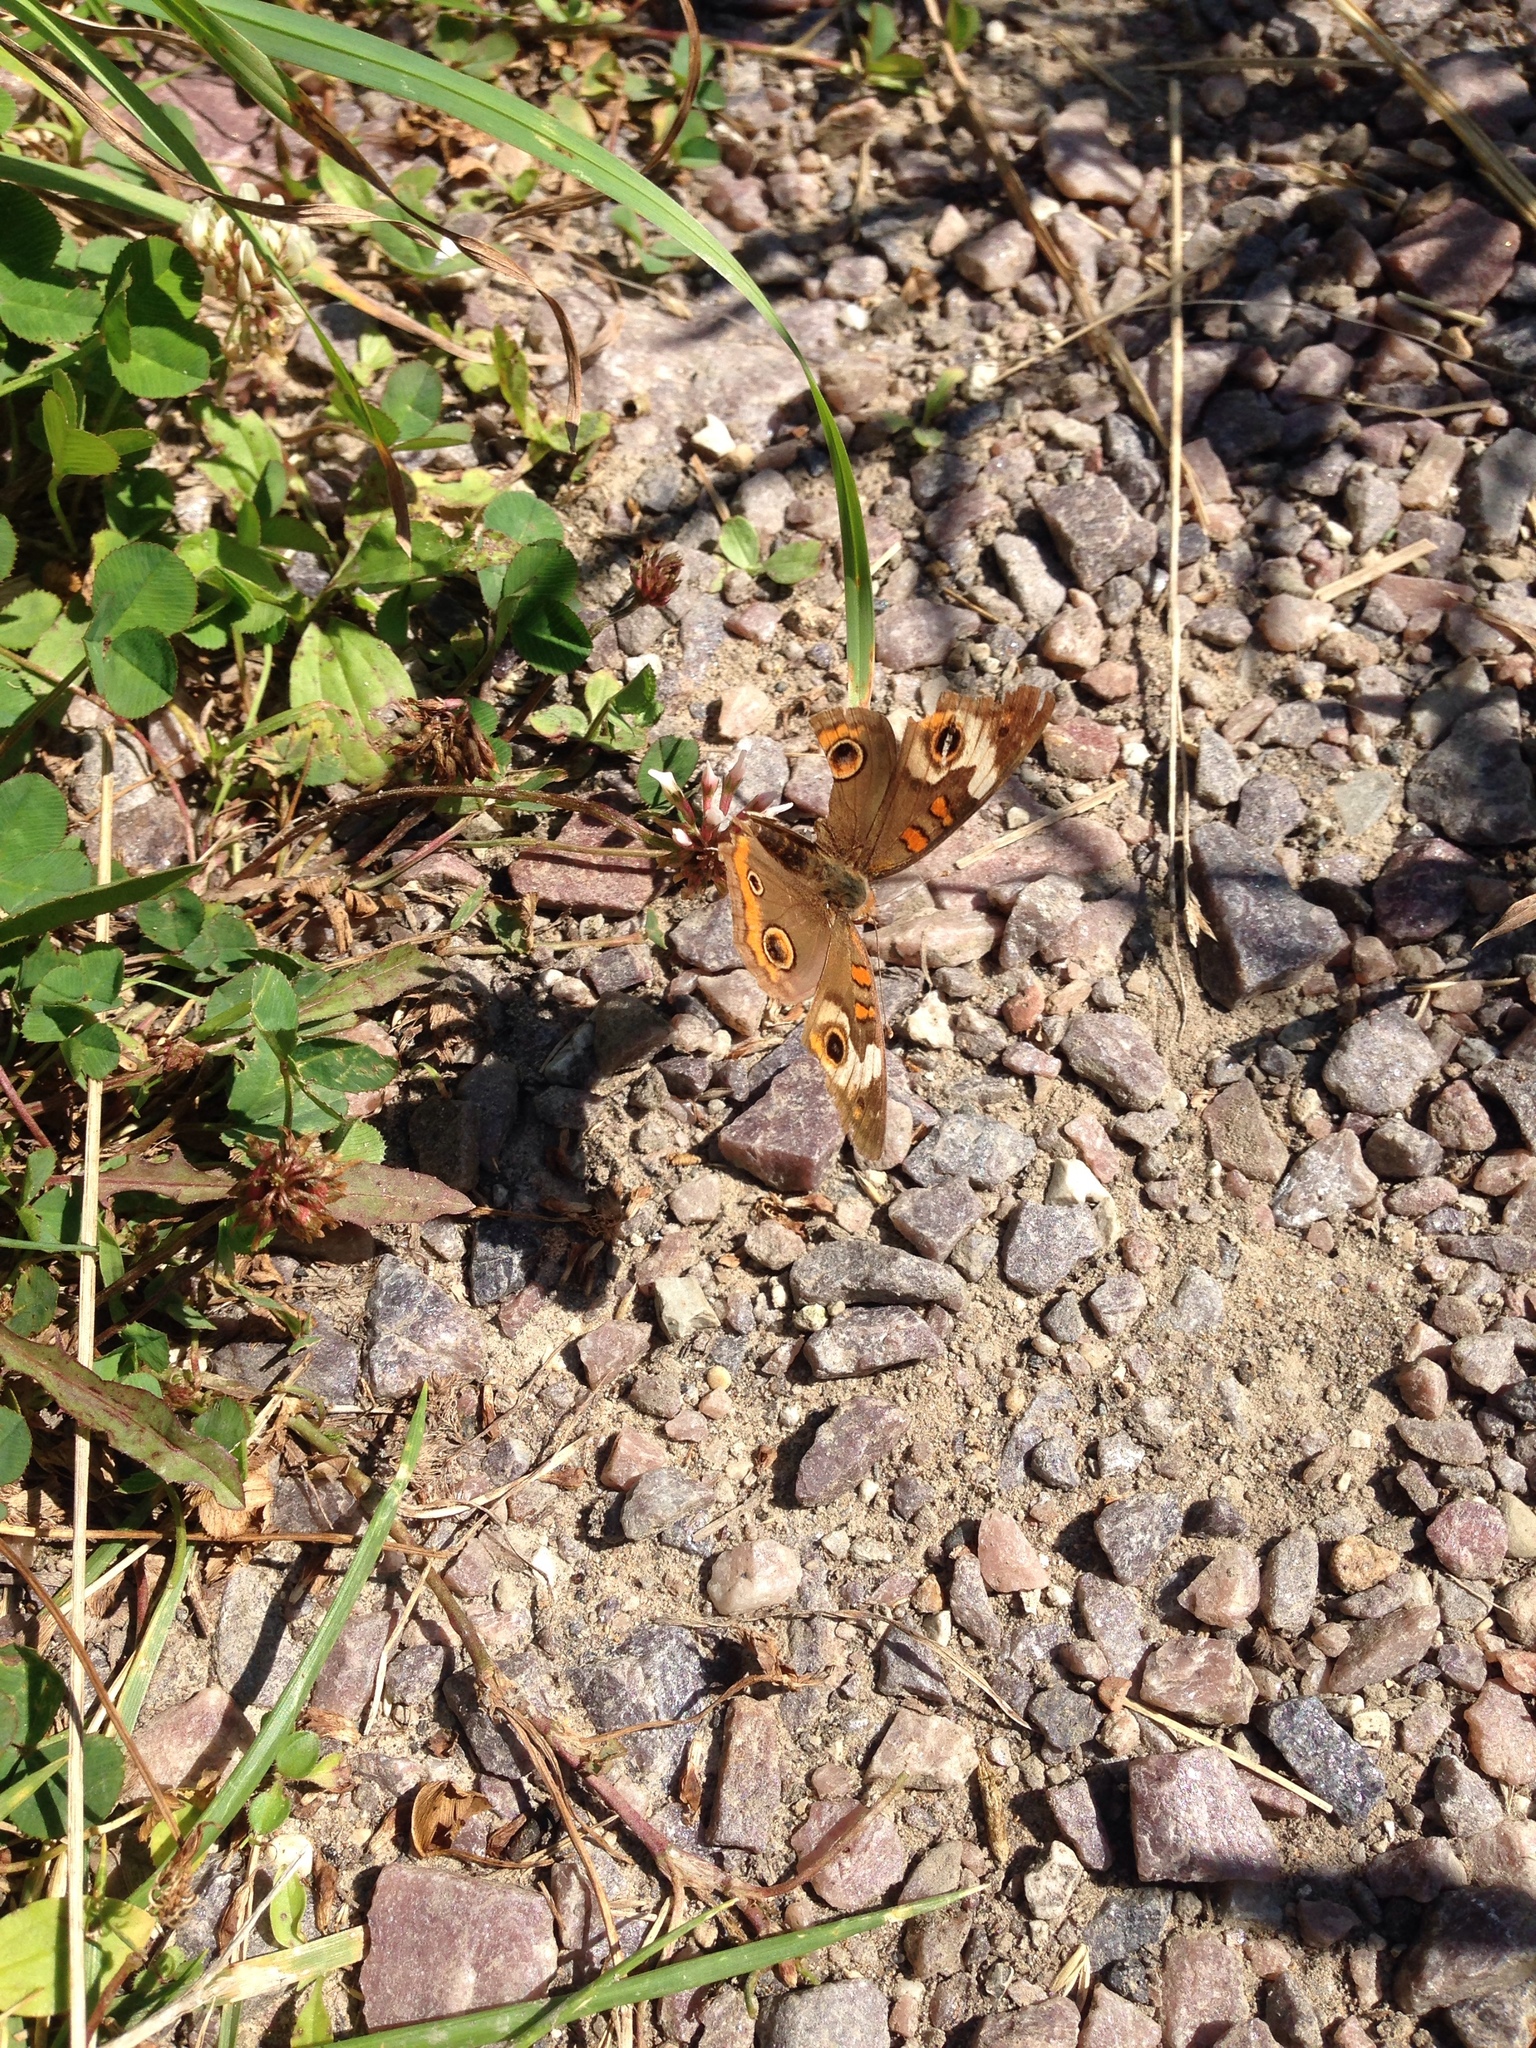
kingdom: Animalia
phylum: Arthropoda
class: Insecta
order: Lepidoptera
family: Nymphalidae
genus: Junonia
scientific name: Junonia coenia
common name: Common buckeye
